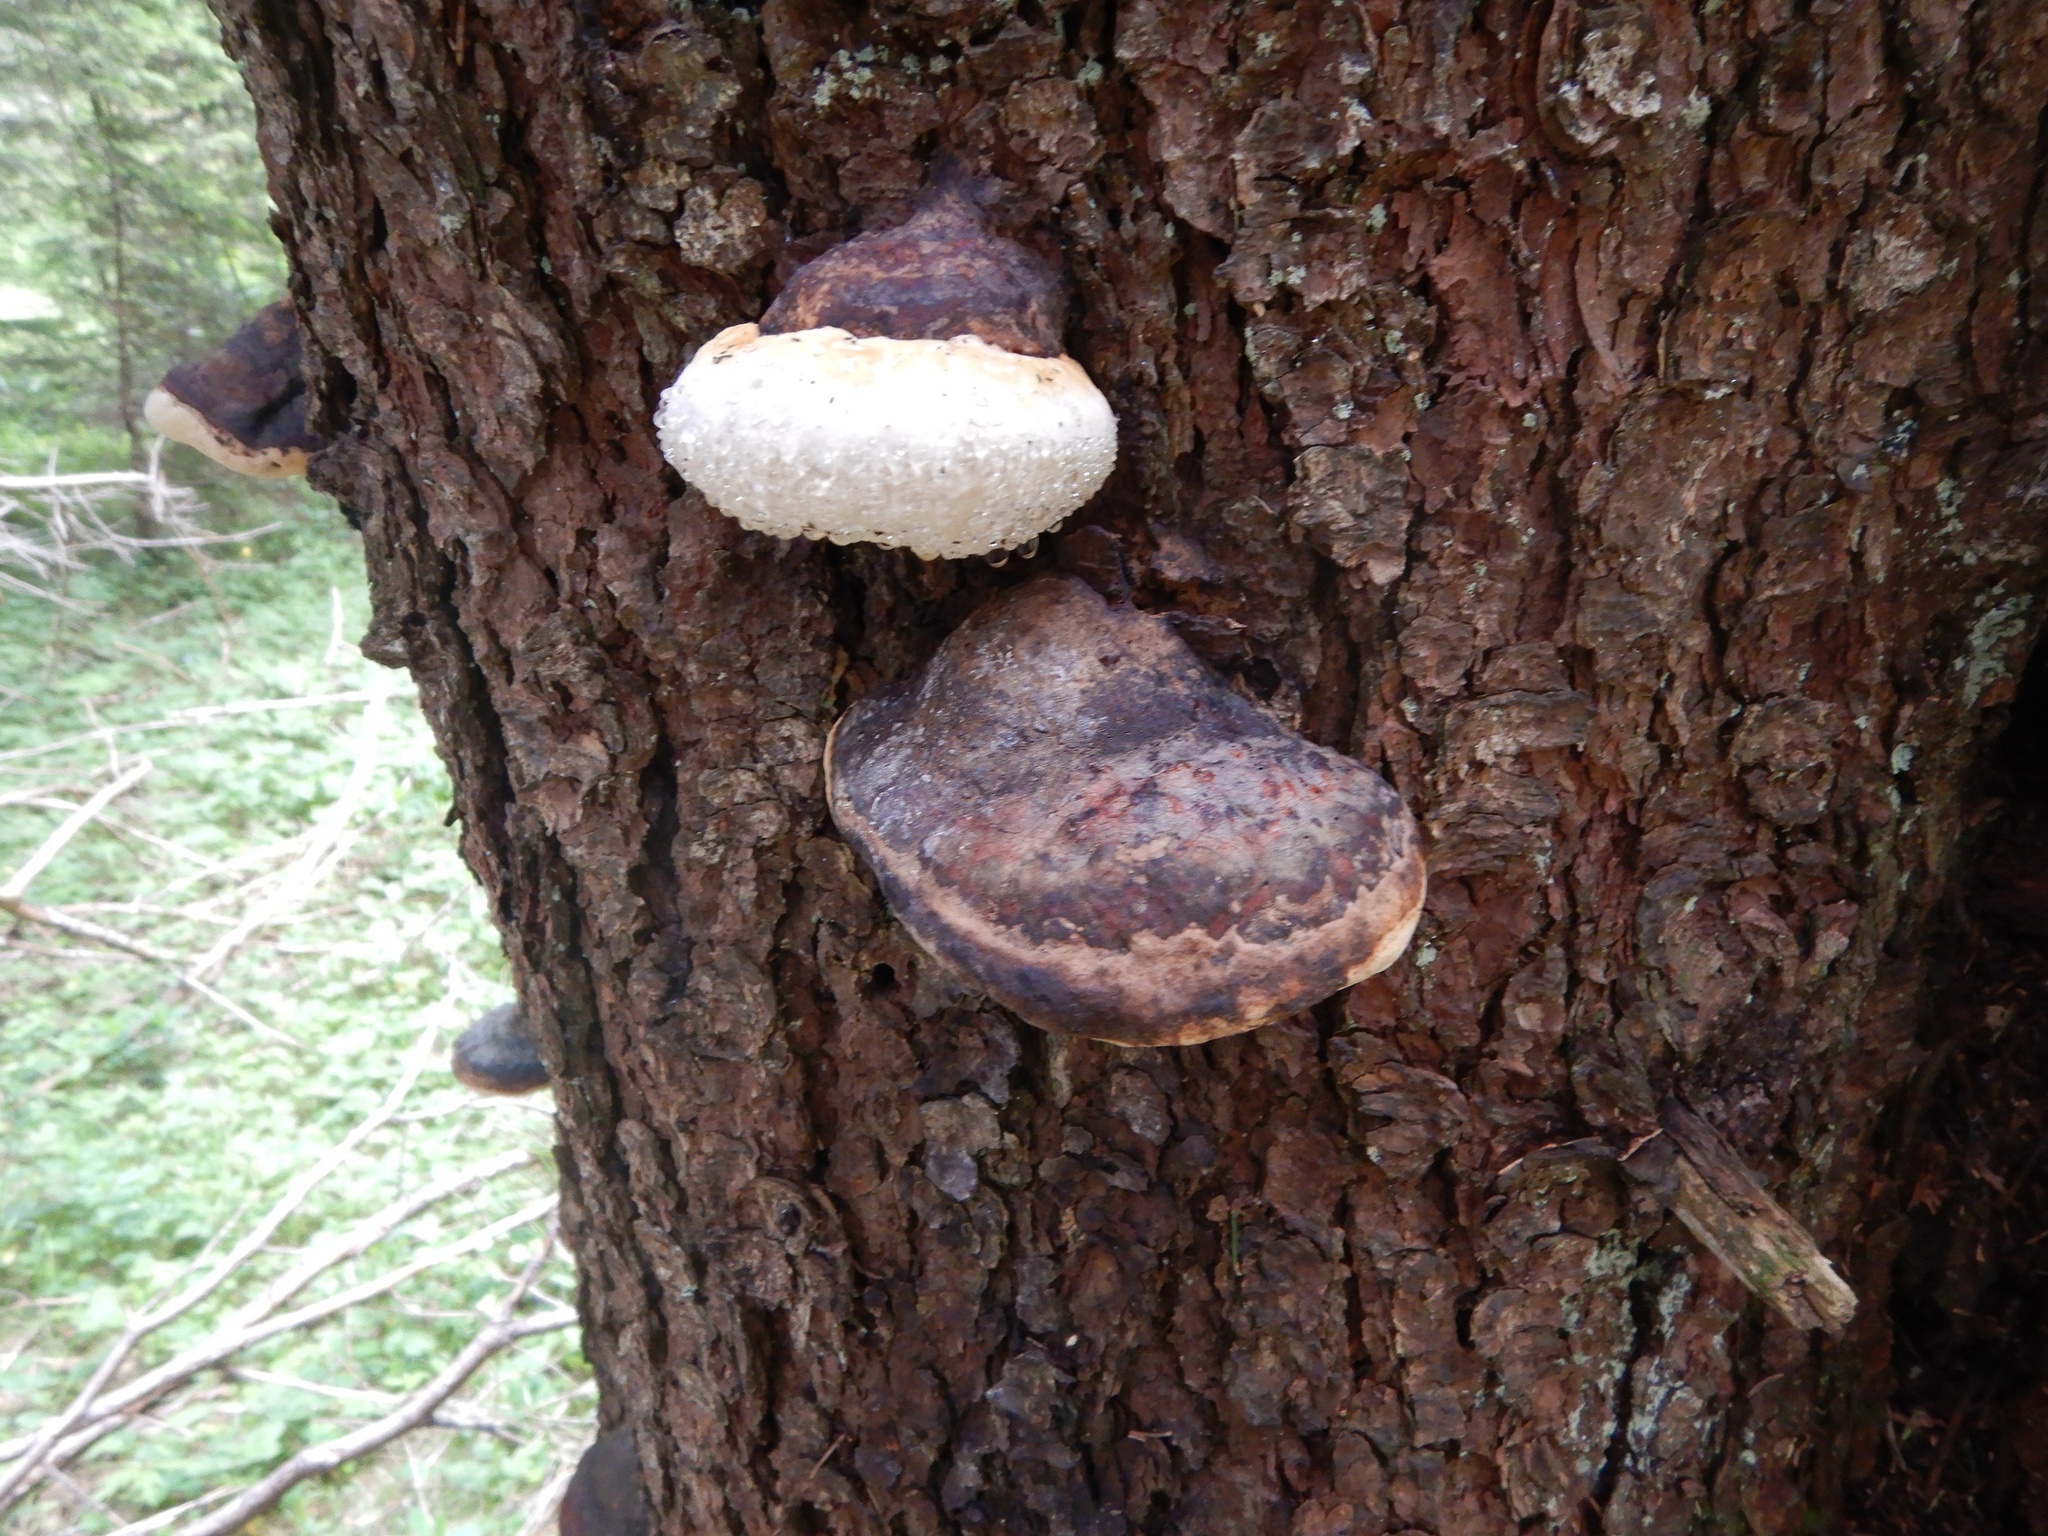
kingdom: Fungi
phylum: Basidiomycota
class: Agaricomycetes
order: Polyporales
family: Fomitopsidaceae
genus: Fomitopsis
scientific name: Fomitopsis pinicola
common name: Red-belted bracket
